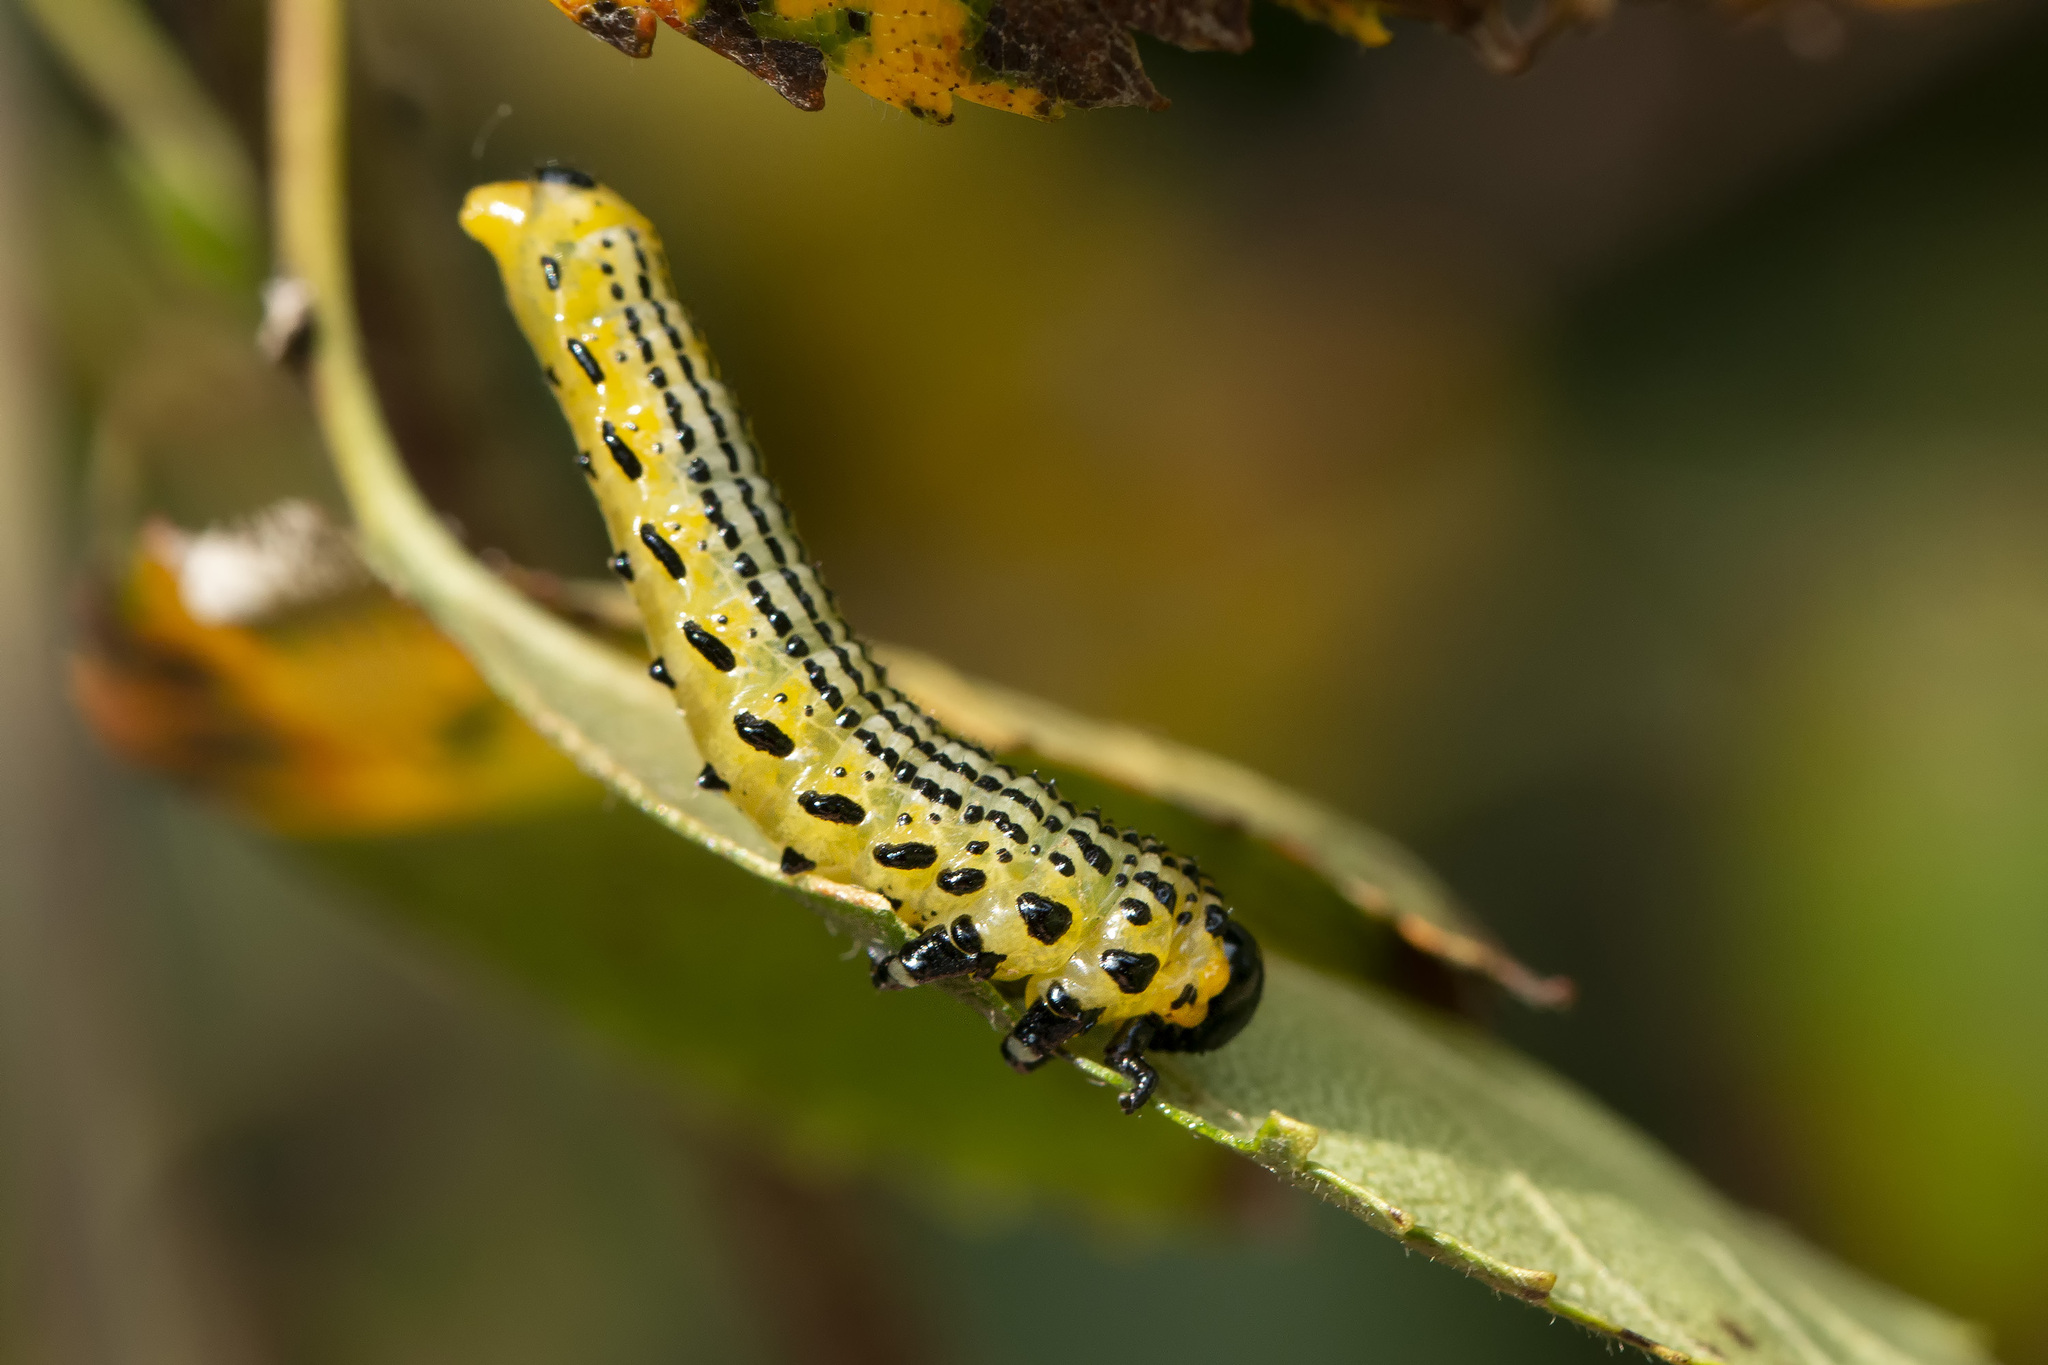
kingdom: Animalia
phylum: Arthropoda
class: Insecta
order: Hymenoptera
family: Argidae
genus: Arge
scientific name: Arge pullata
